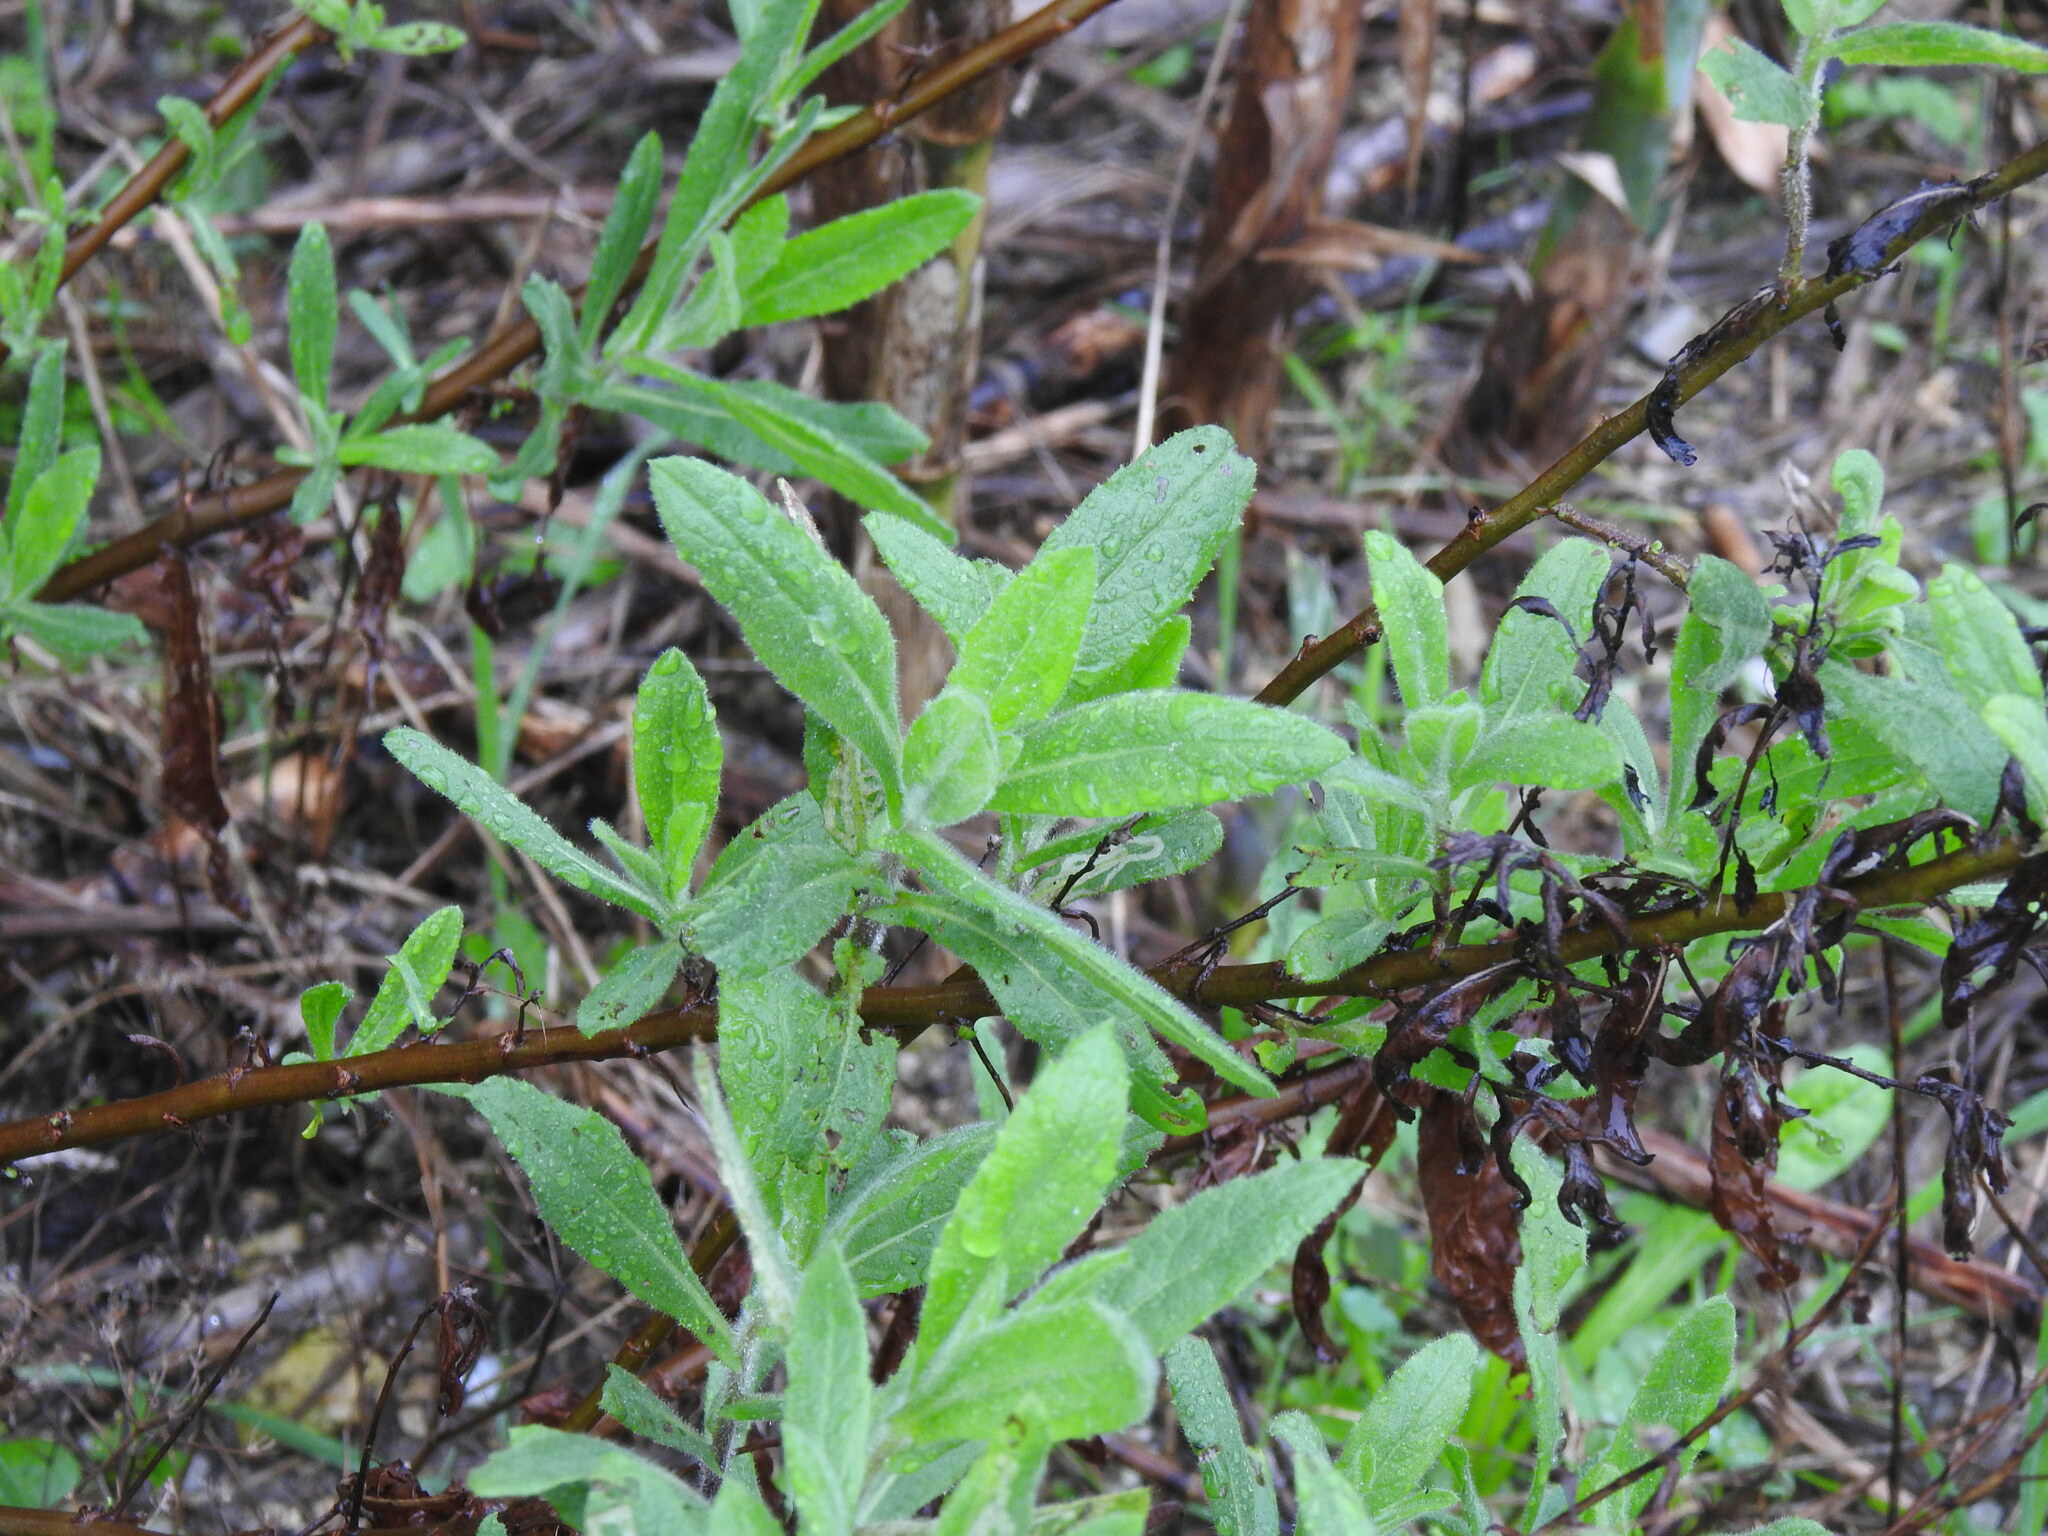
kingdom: Plantae
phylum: Tracheophyta
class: Magnoliopsida
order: Asterales
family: Asteraceae
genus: Dittrichia
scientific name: Dittrichia viscosa
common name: Woody fleabane
